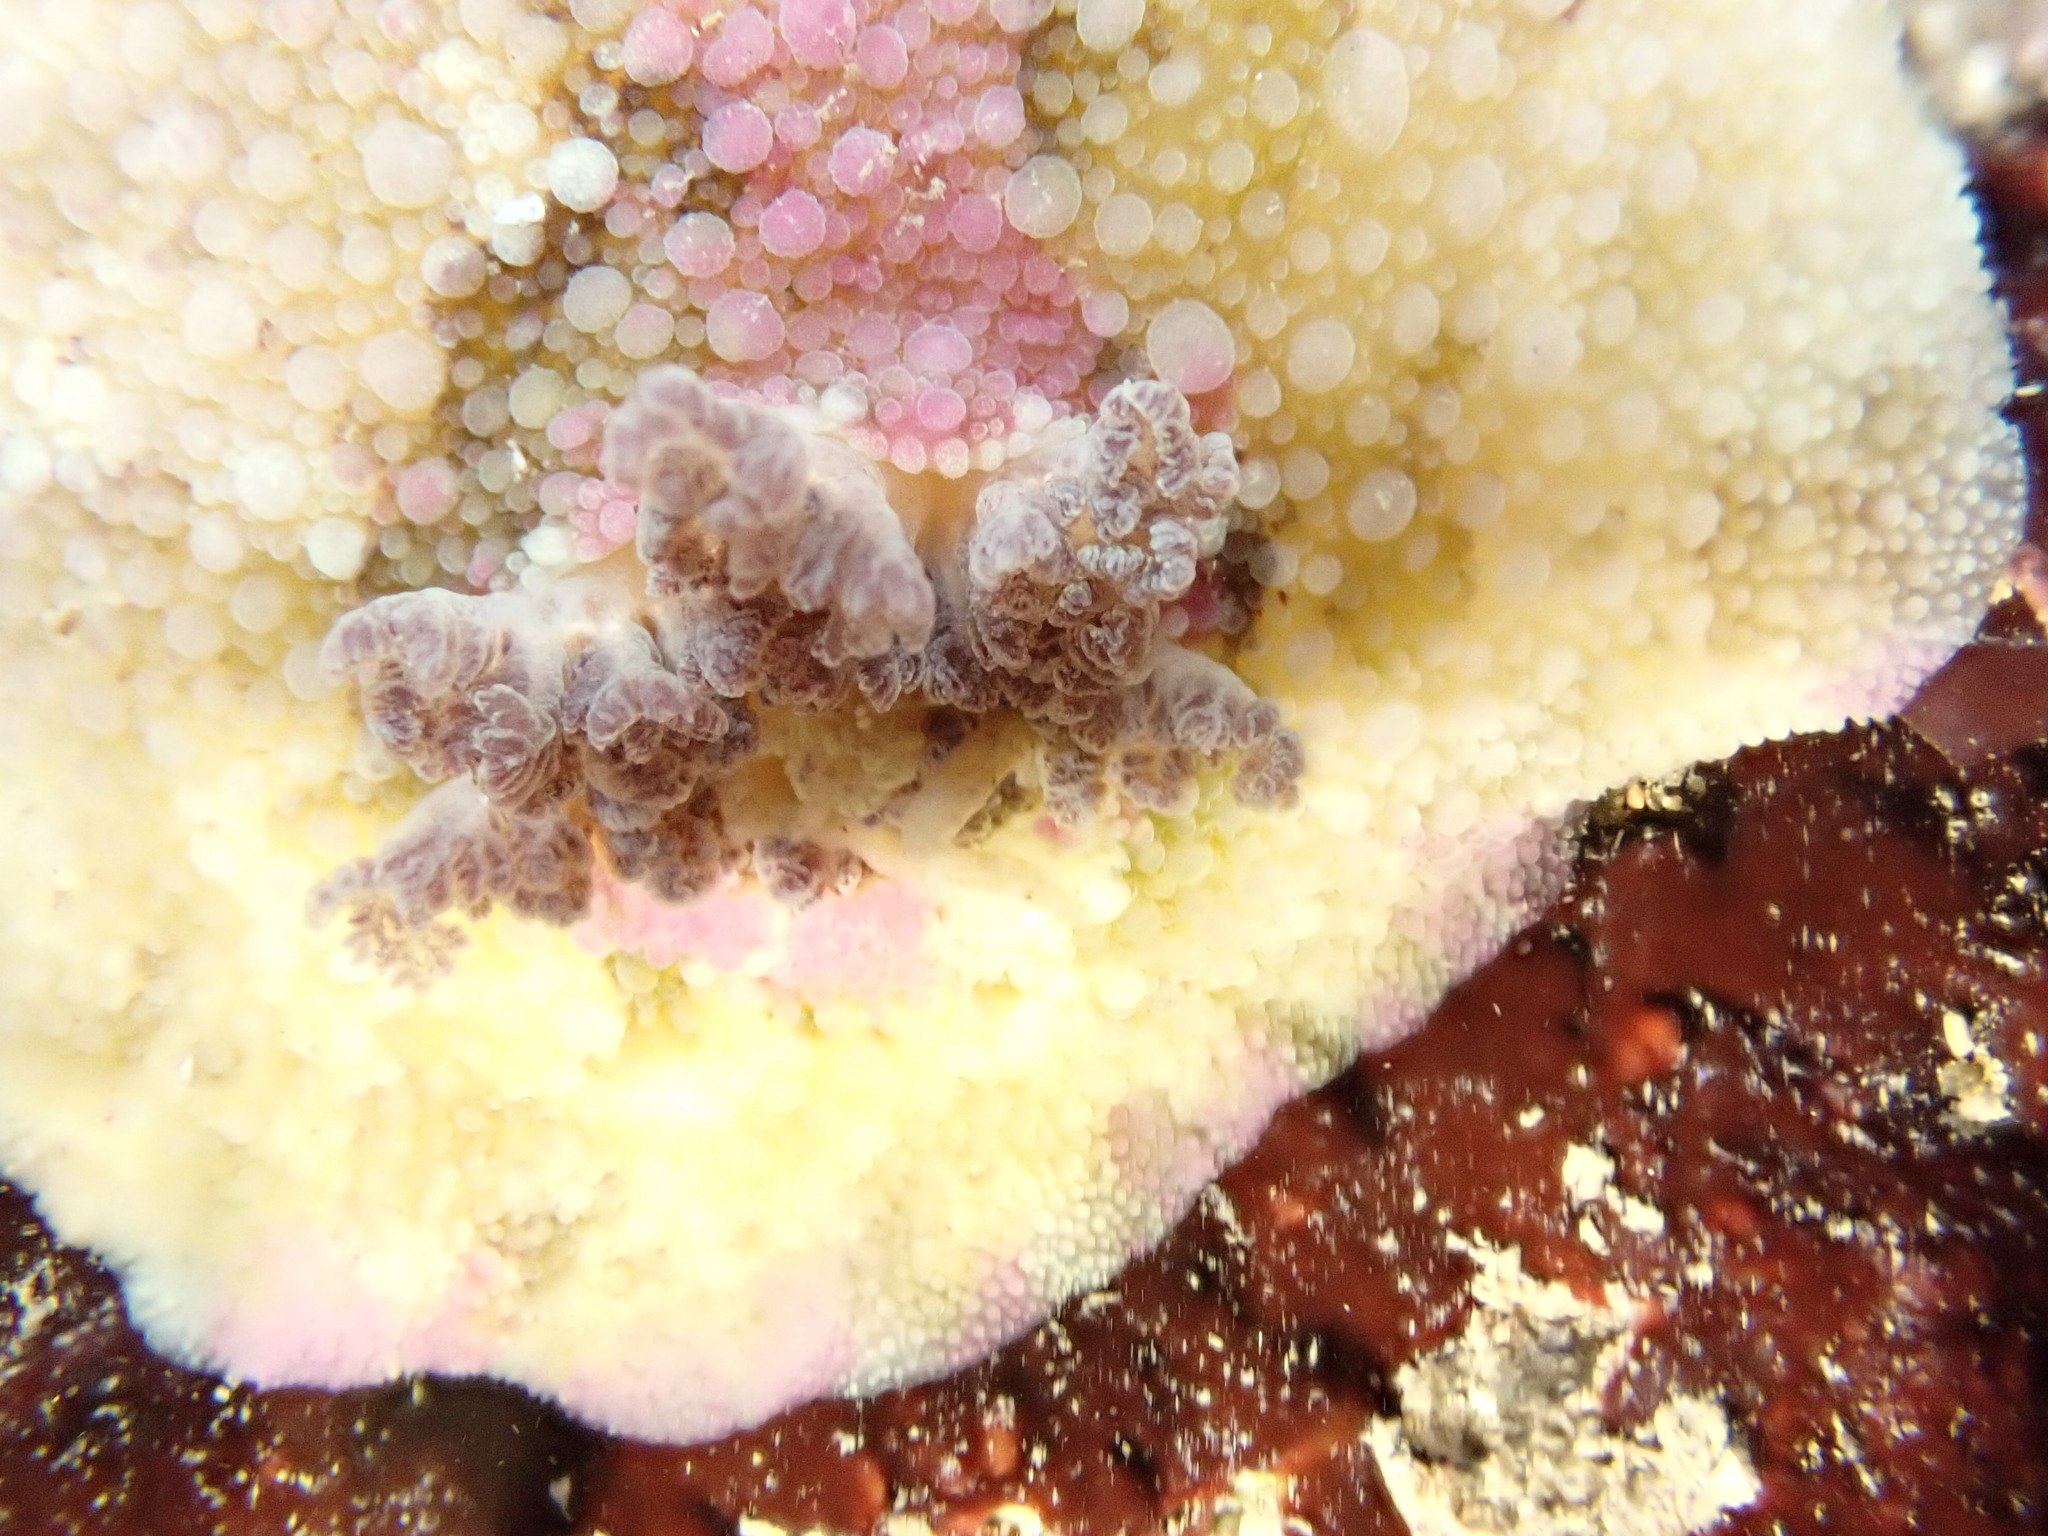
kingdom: Animalia
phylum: Mollusca
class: Gastropoda
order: Nudibranchia
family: Dorididae
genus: Doris
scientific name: Doris pseudoargus
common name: Sea lemon
